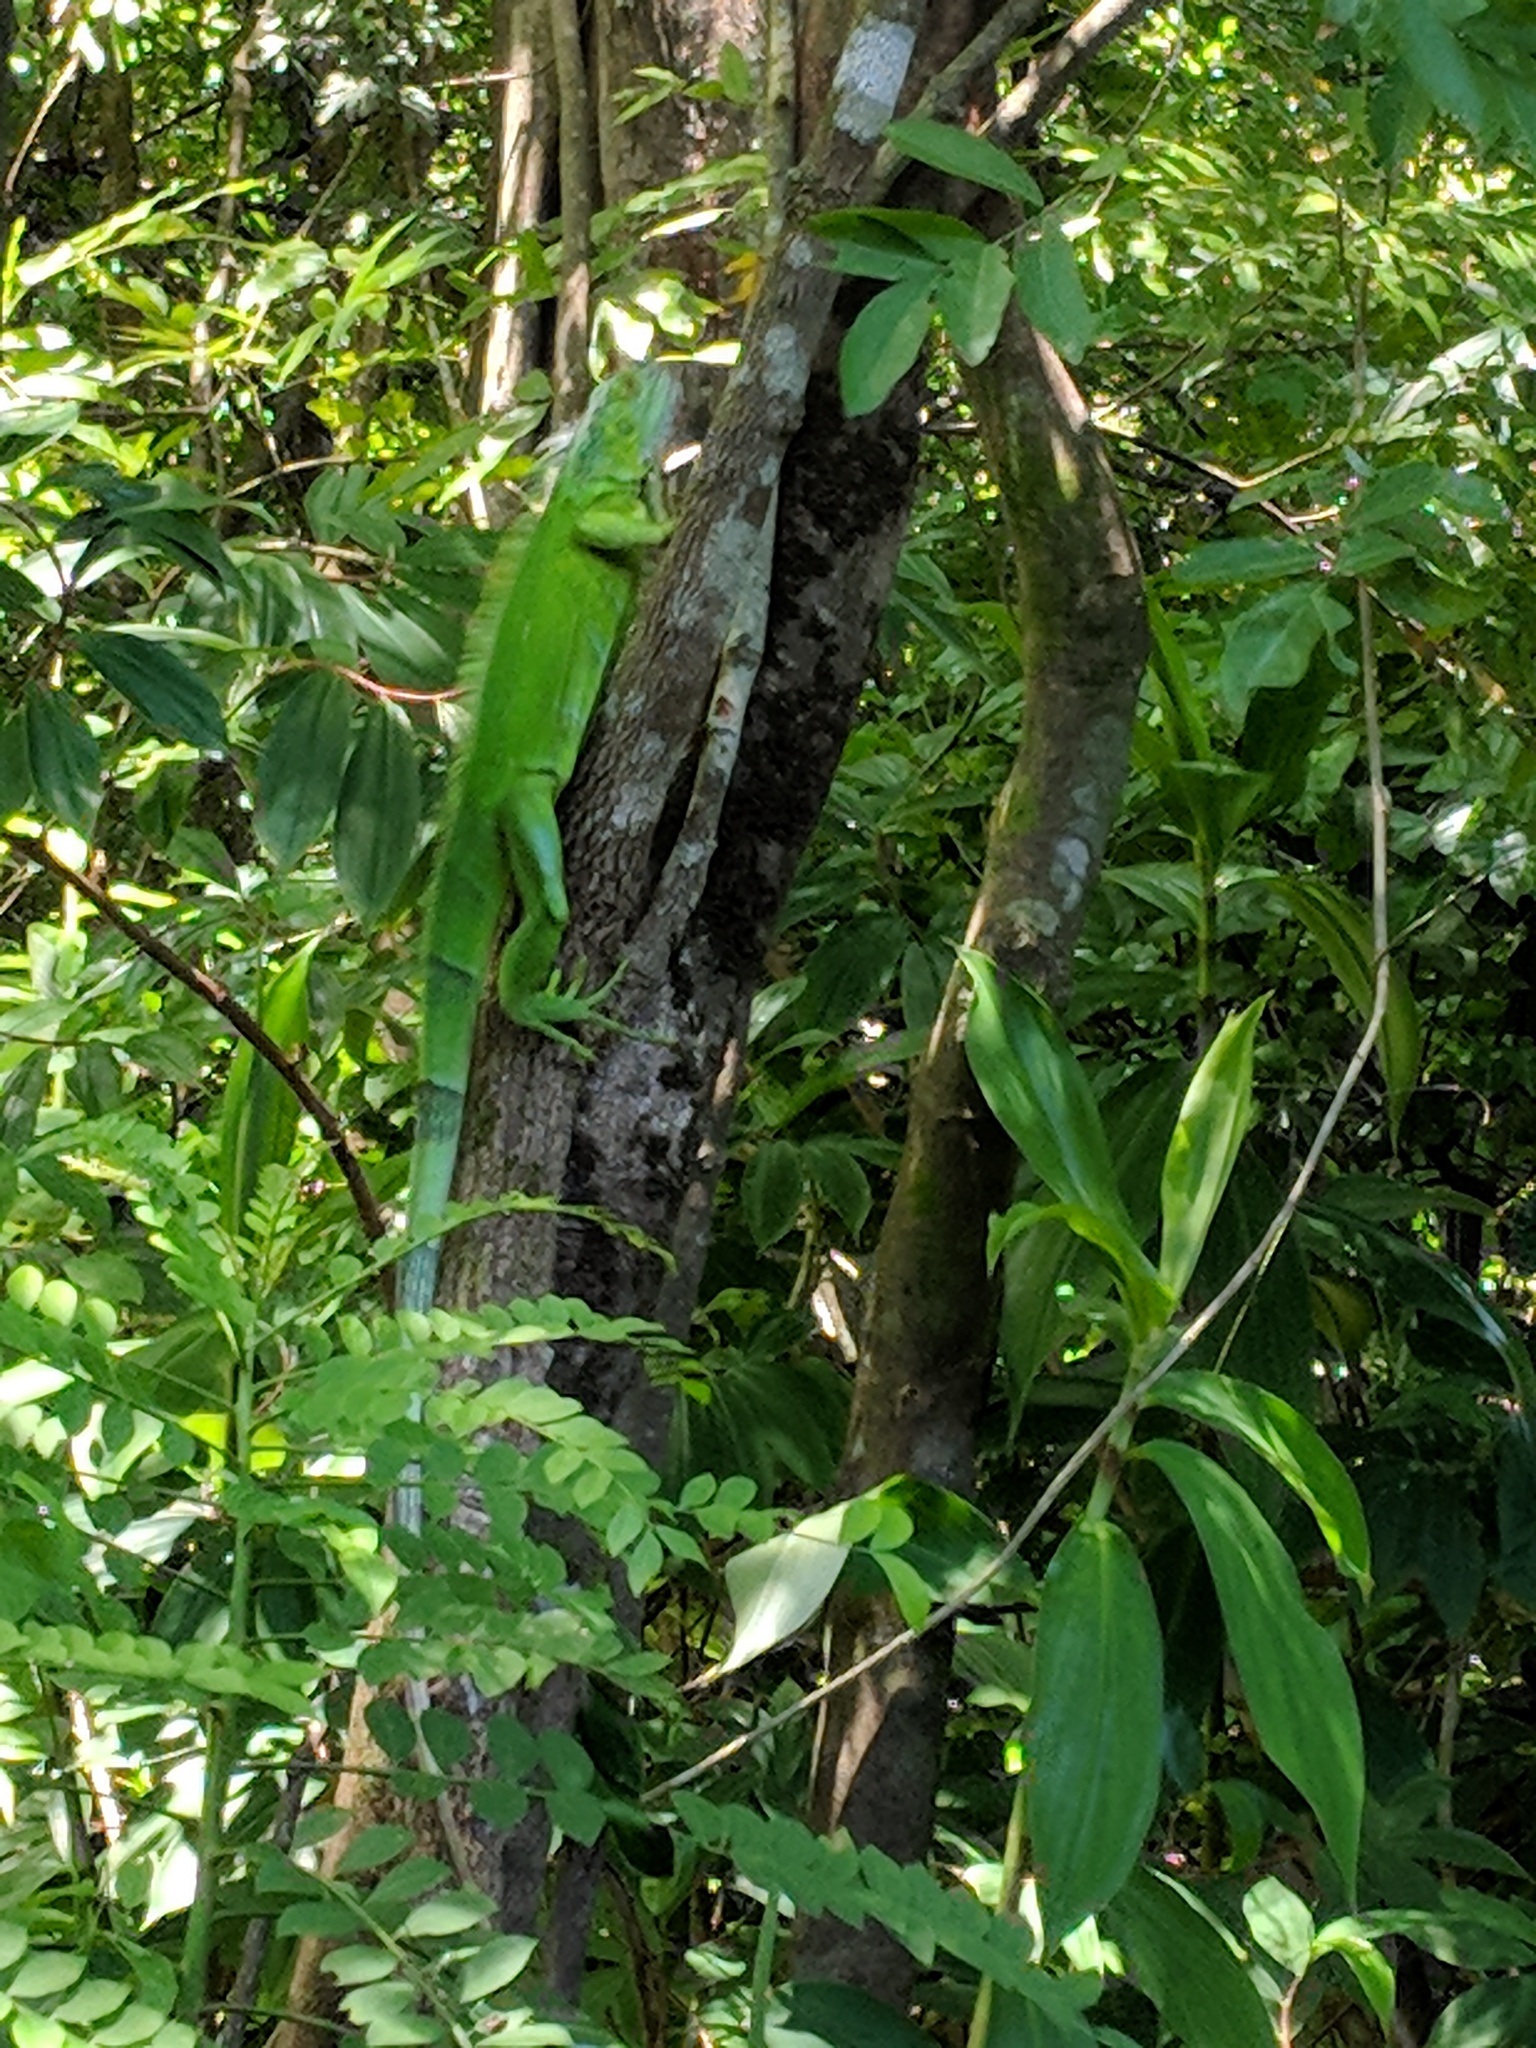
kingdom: Animalia
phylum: Chordata
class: Squamata
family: Iguanidae
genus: Iguana
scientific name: Iguana iguana
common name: Green iguana
